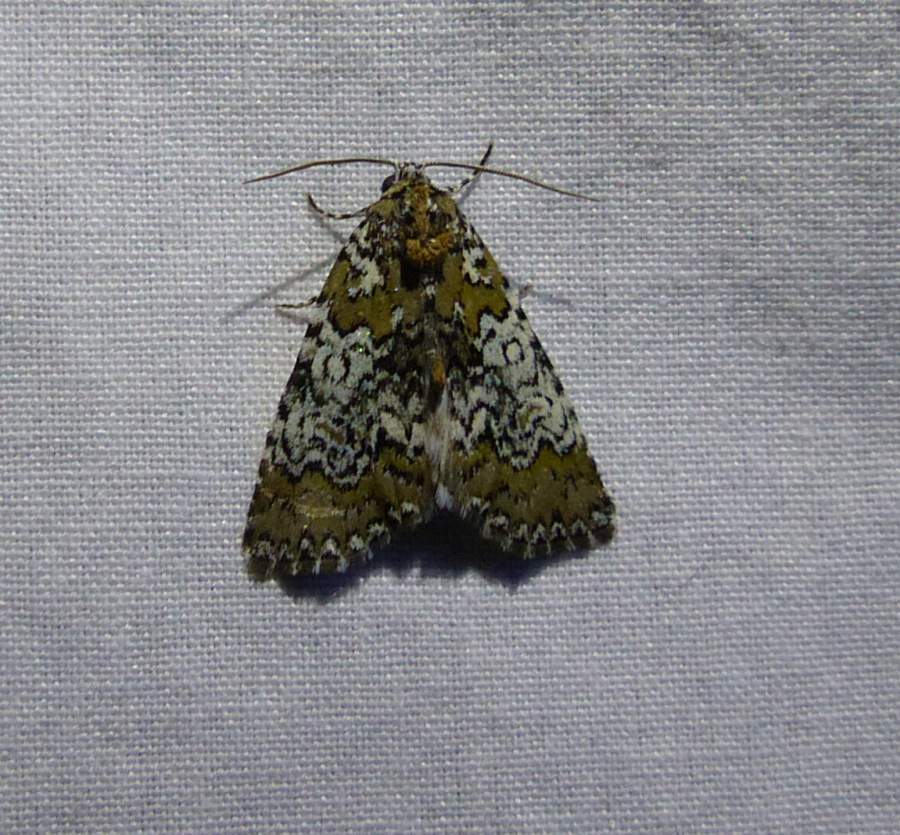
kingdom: Animalia
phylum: Arthropoda
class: Insecta
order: Lepidoptera
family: Noctuidae
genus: Cerma
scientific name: Cerma cora
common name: Bird dropping moth
